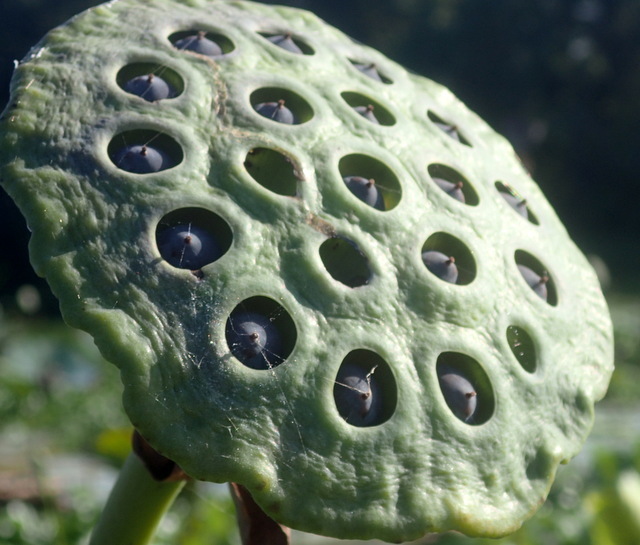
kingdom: Plantae
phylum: Tracheophyta
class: Magnoliopsida
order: Proteales
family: Nelumbonaceae
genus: Nelumbo
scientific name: Nelumbo lutea
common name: American lotus
